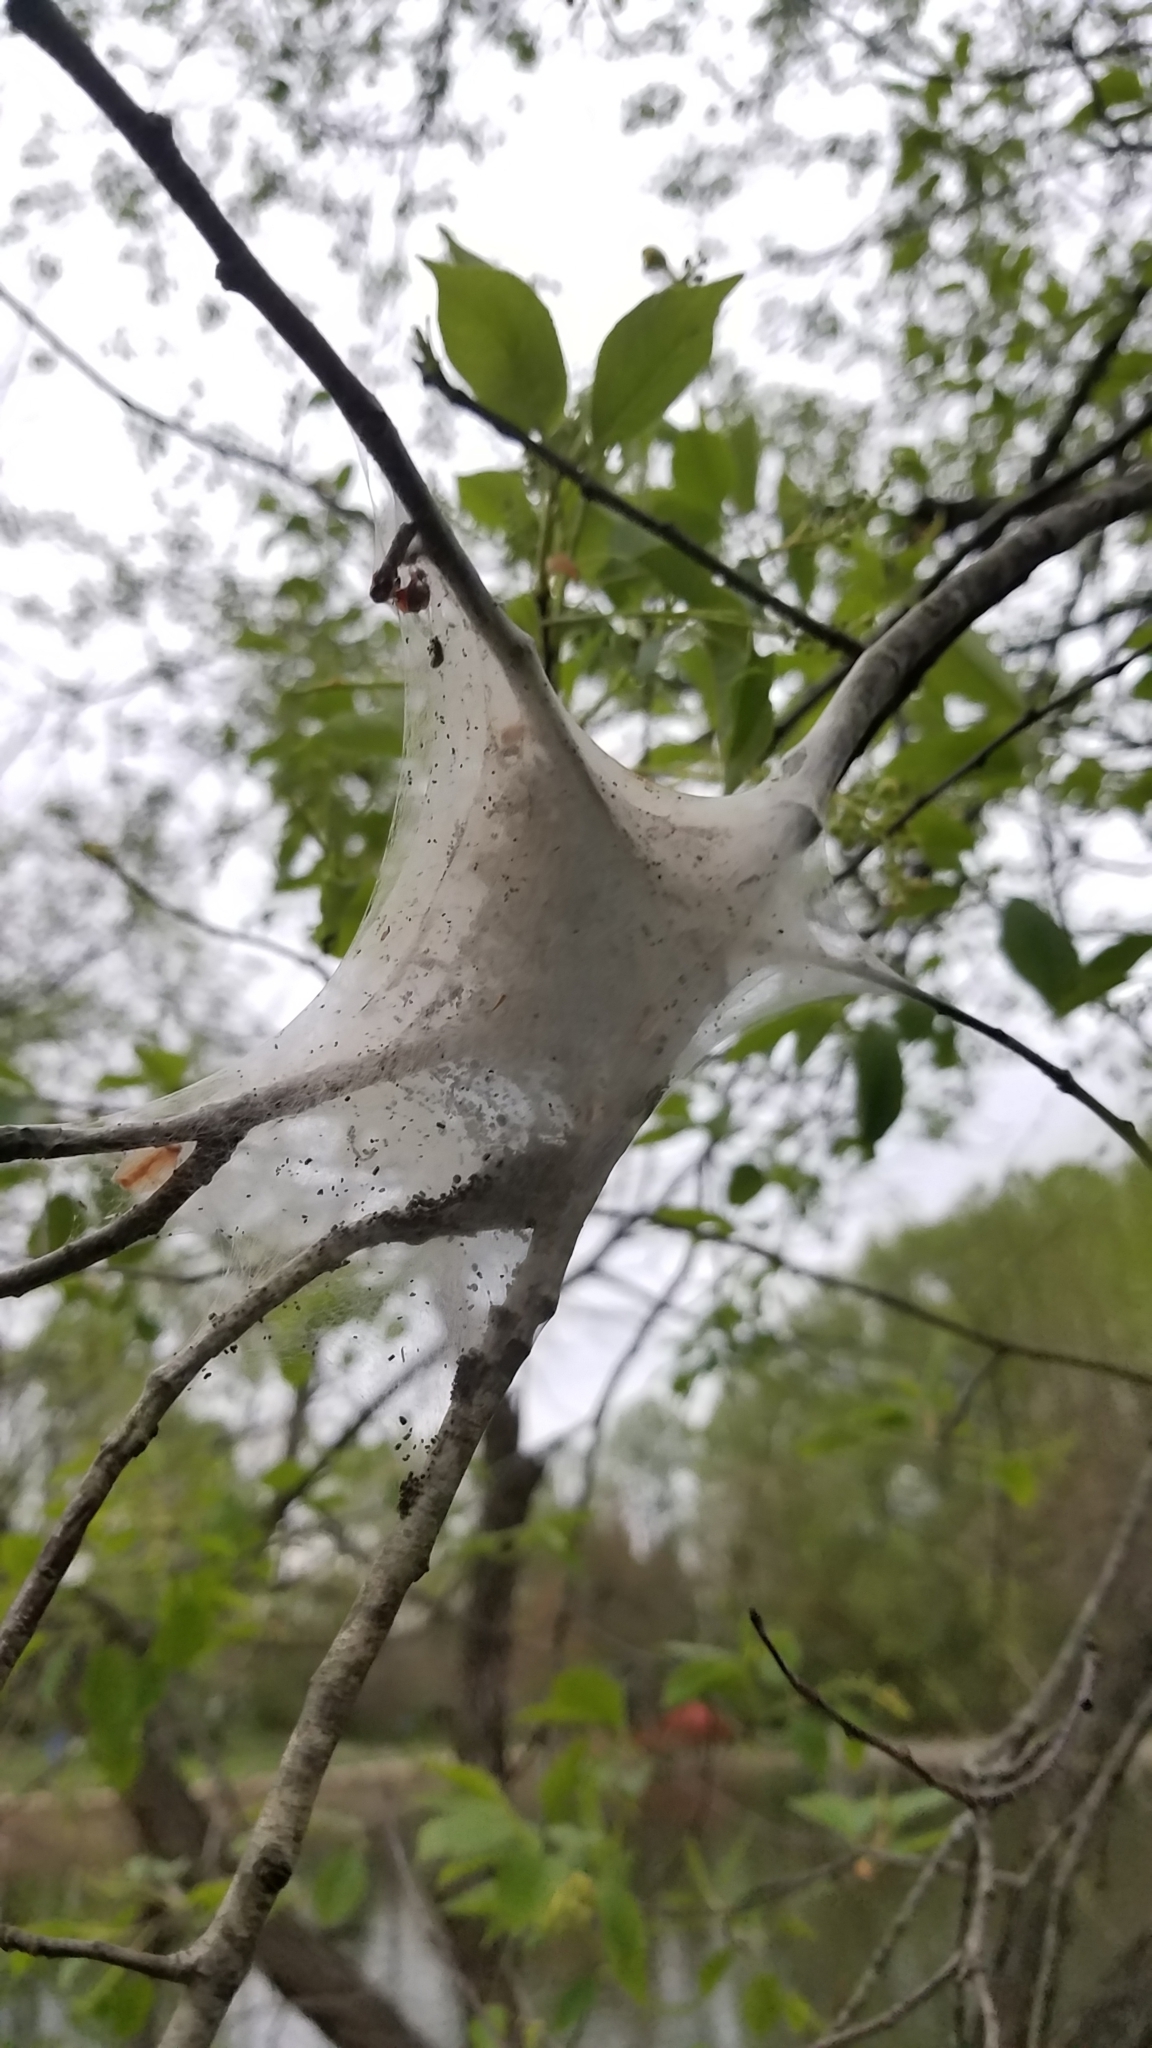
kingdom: Animalia
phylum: Arthropoda
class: Insecta
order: Lepidoptera
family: Lasiocampidae
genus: Malacosoma
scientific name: Malacosoma americana
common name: Eastern tent caterpillar moth
